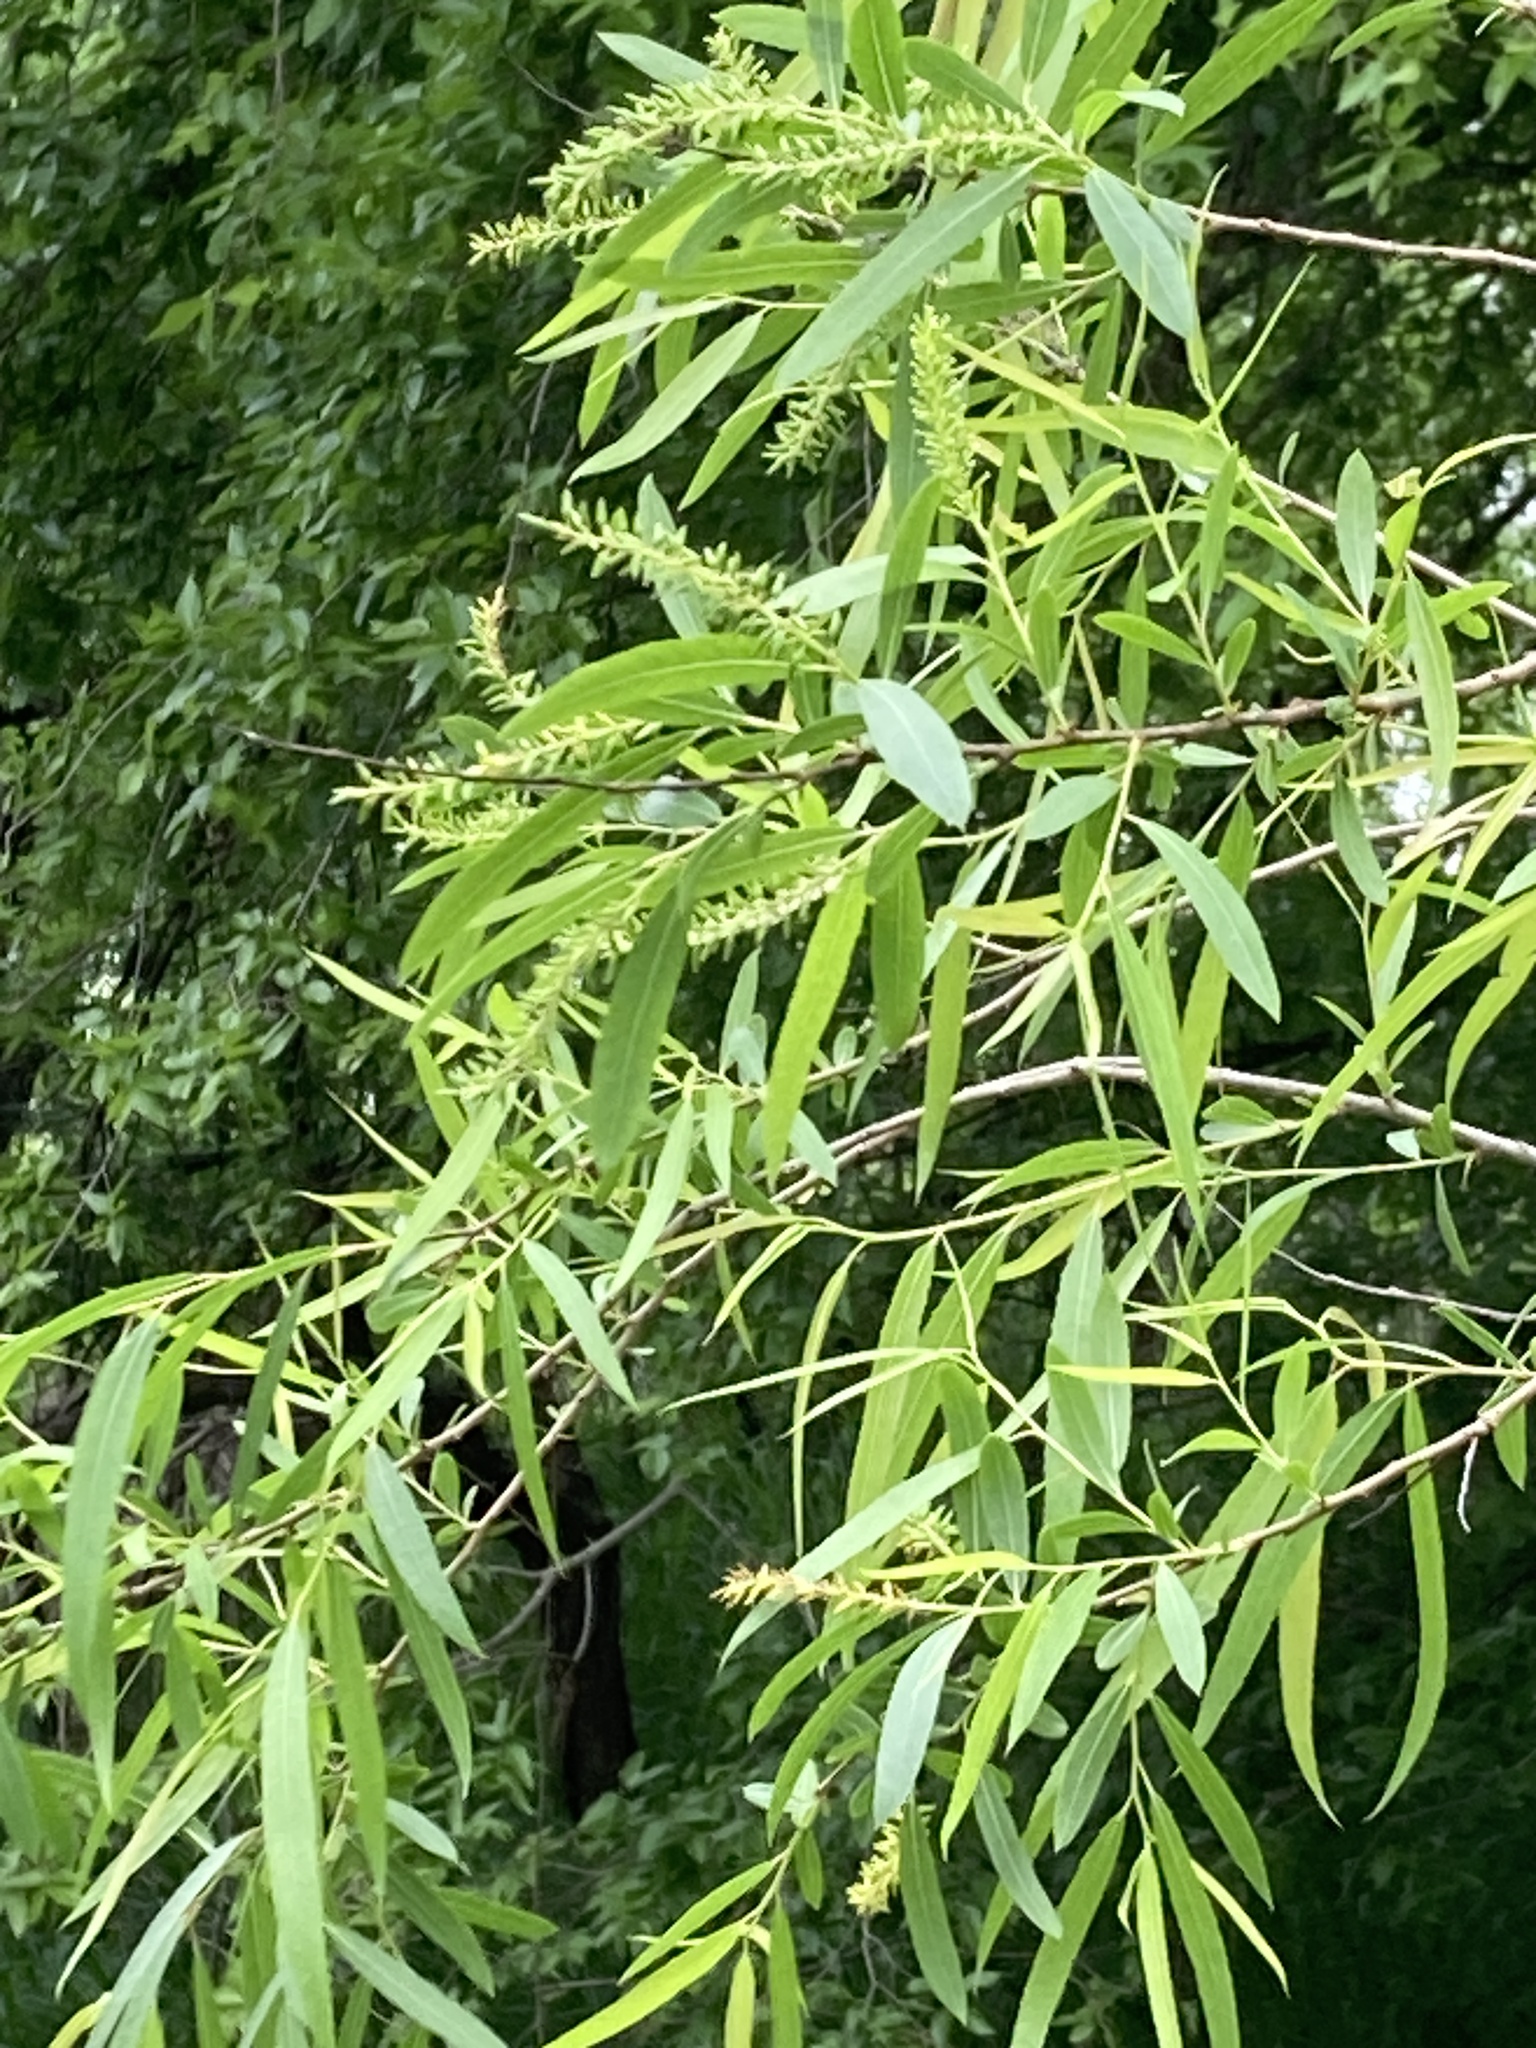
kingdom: Plantae
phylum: Tracheophyta
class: Magnoliopsida
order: Malpighiales
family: Salicaceae
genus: Salix
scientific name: Salix nigra
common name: Black willow
